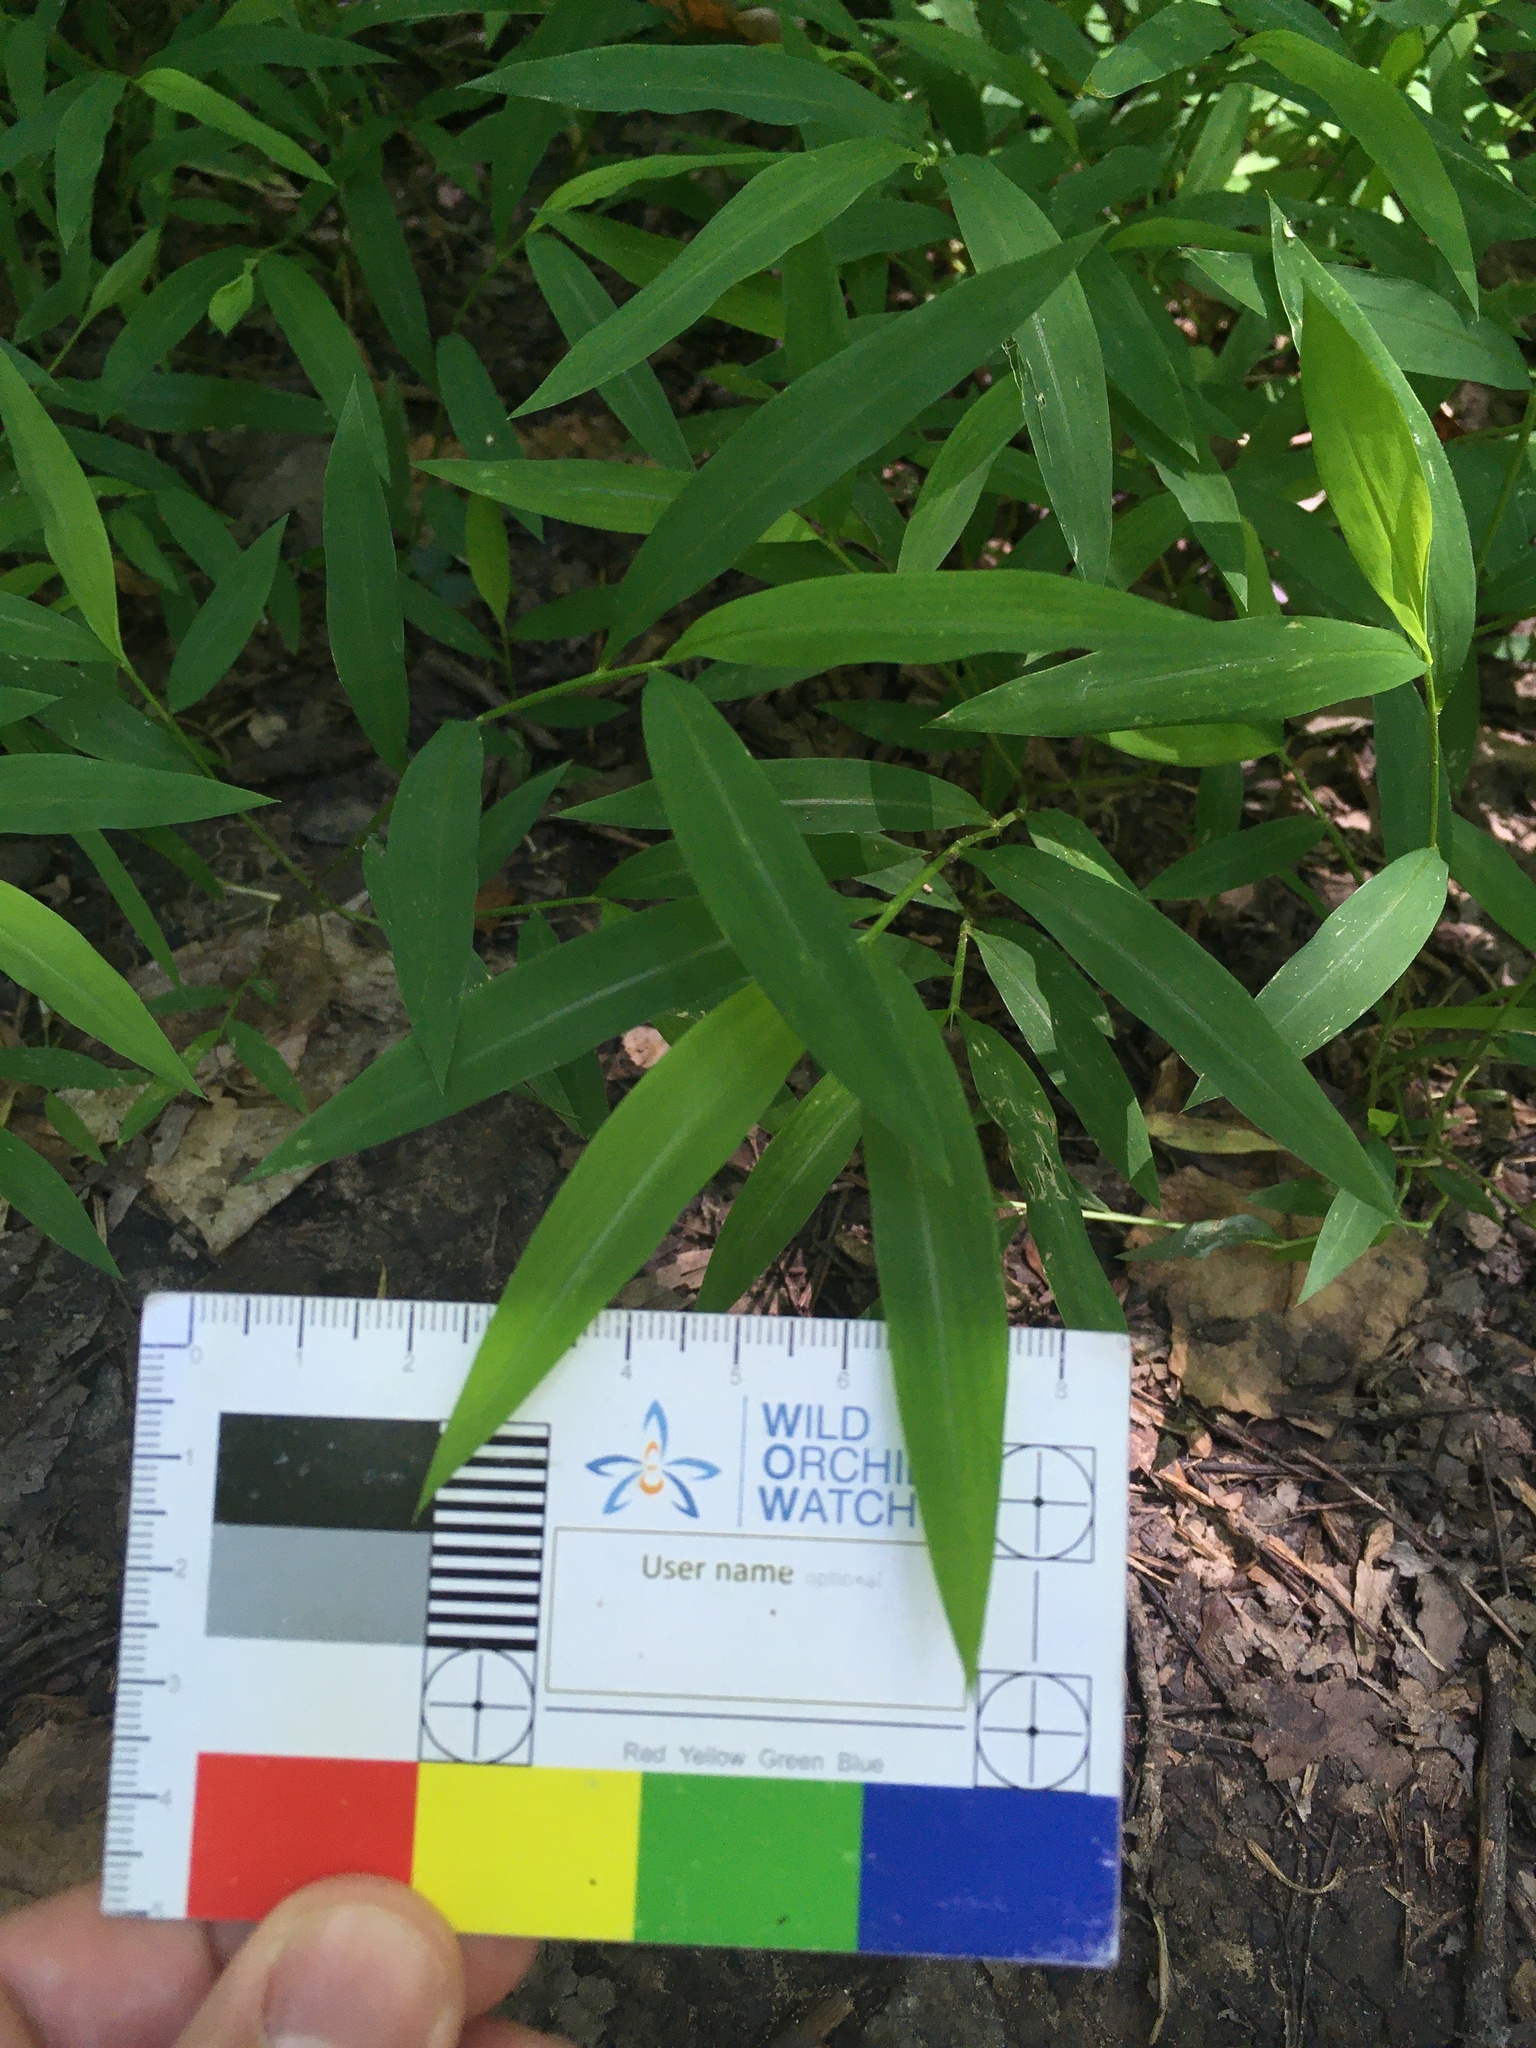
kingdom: Plantae
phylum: Tracheophyta
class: Liliopsida
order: Poales
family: Poaceae
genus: Microstegium
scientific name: Microstegium vimineum
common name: Japanese stiltgrass
